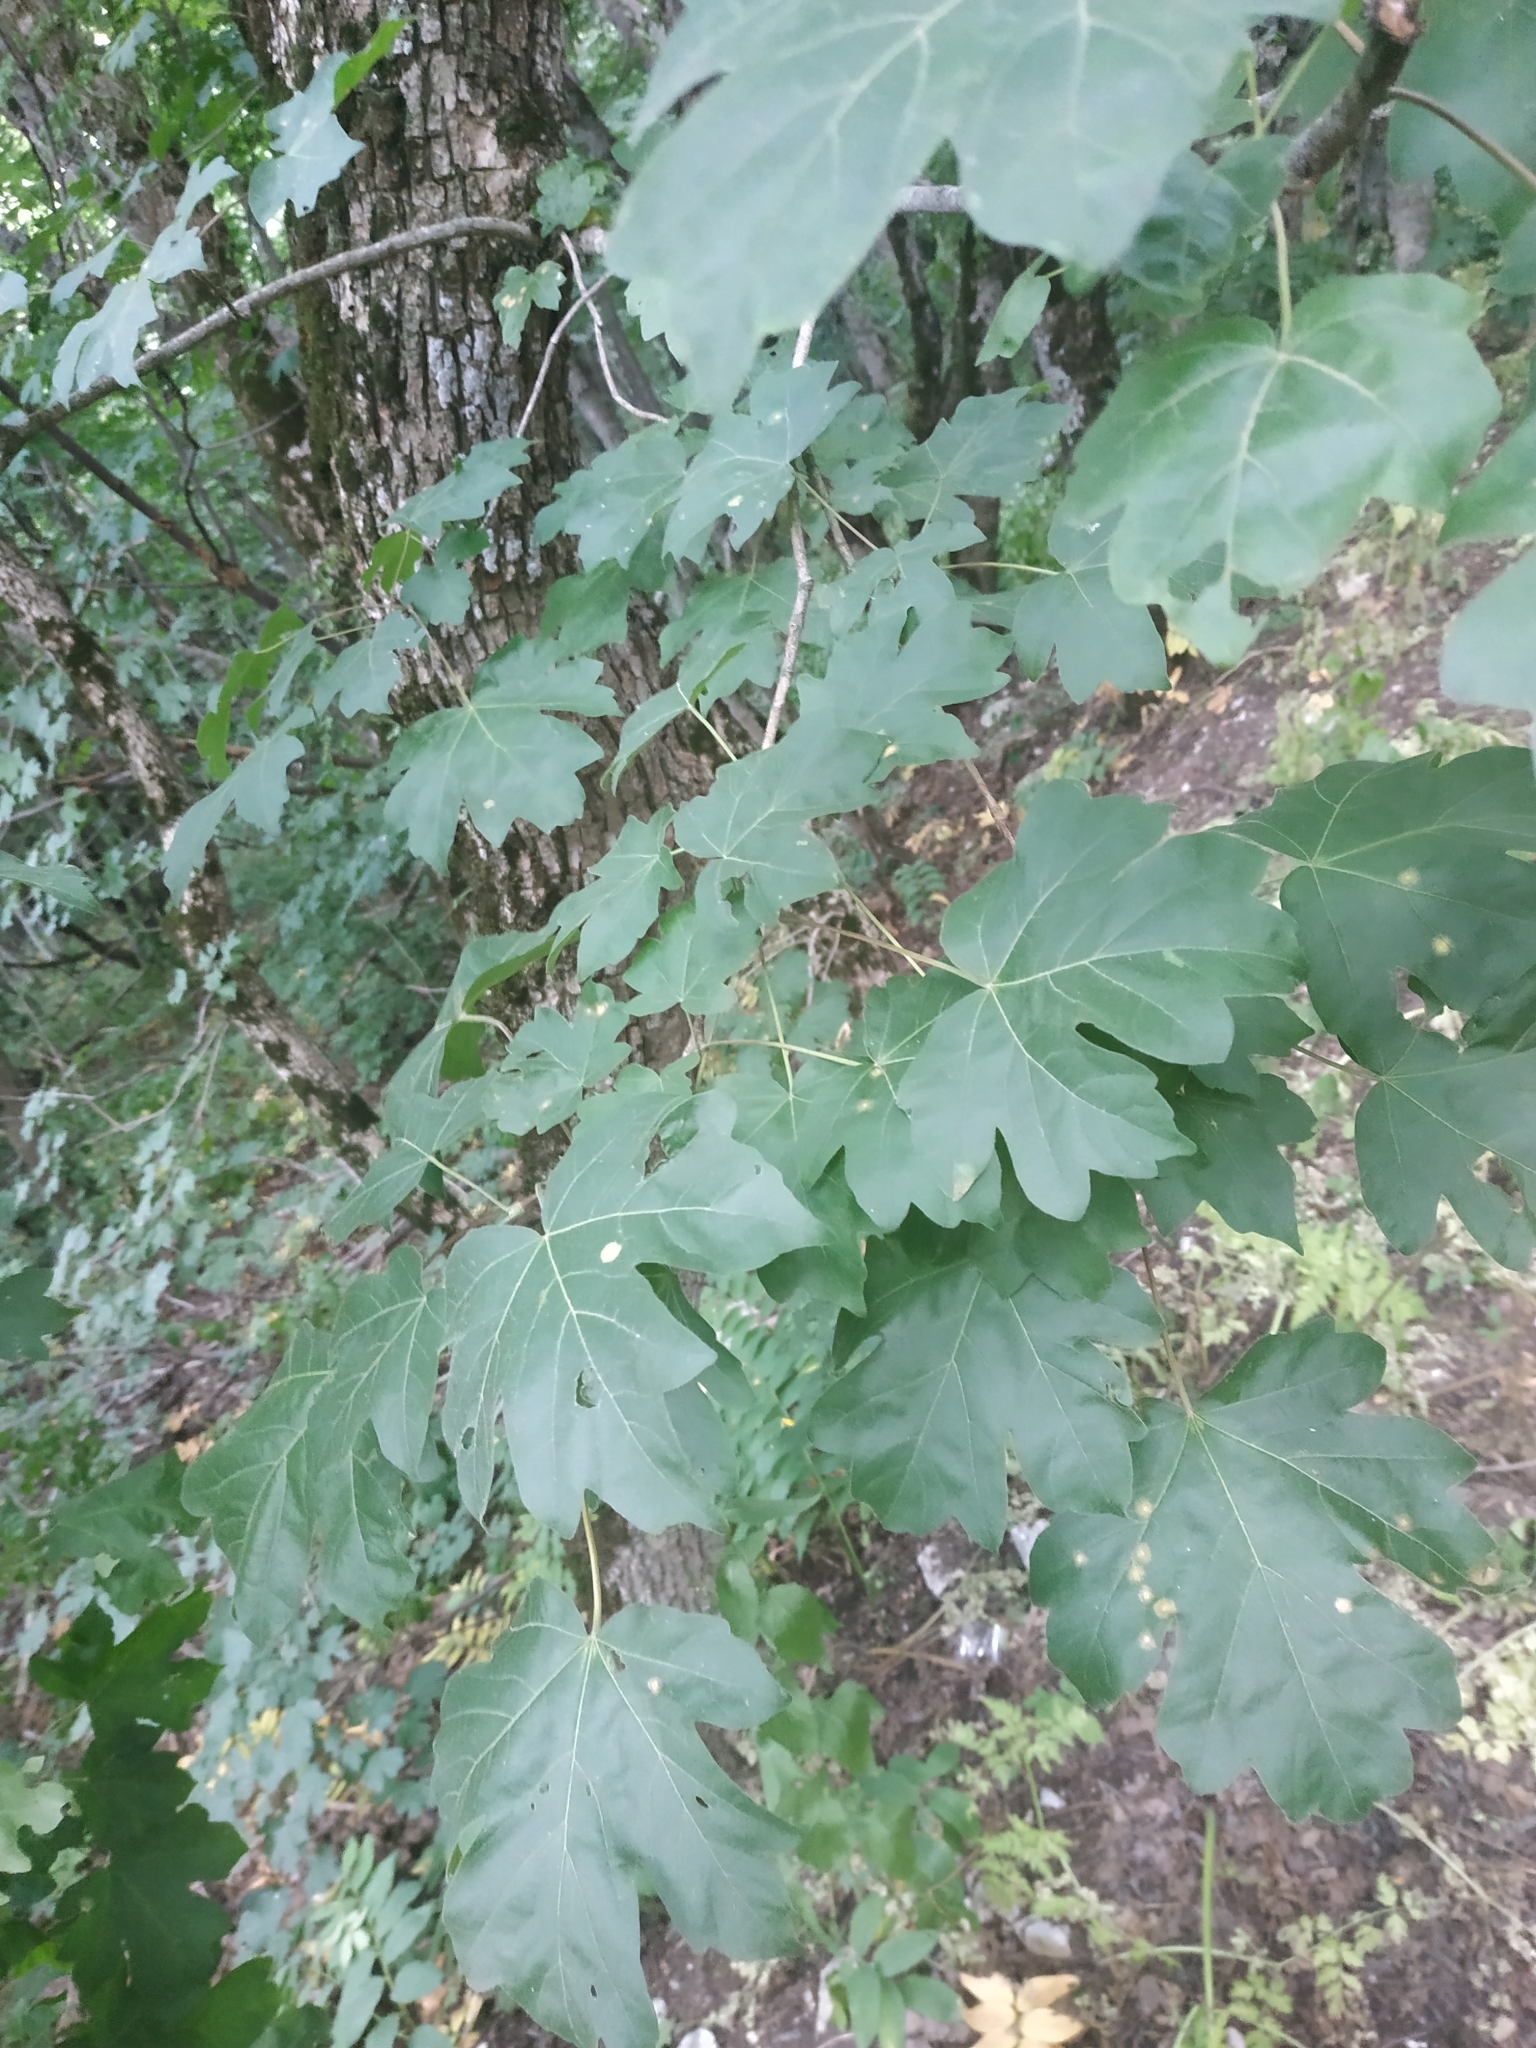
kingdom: Plantae
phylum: Tracheophyta
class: Magnoliopsida
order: Sapindales
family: Sapindaceae
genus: Acer
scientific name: Acer campestre
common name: Field maple
